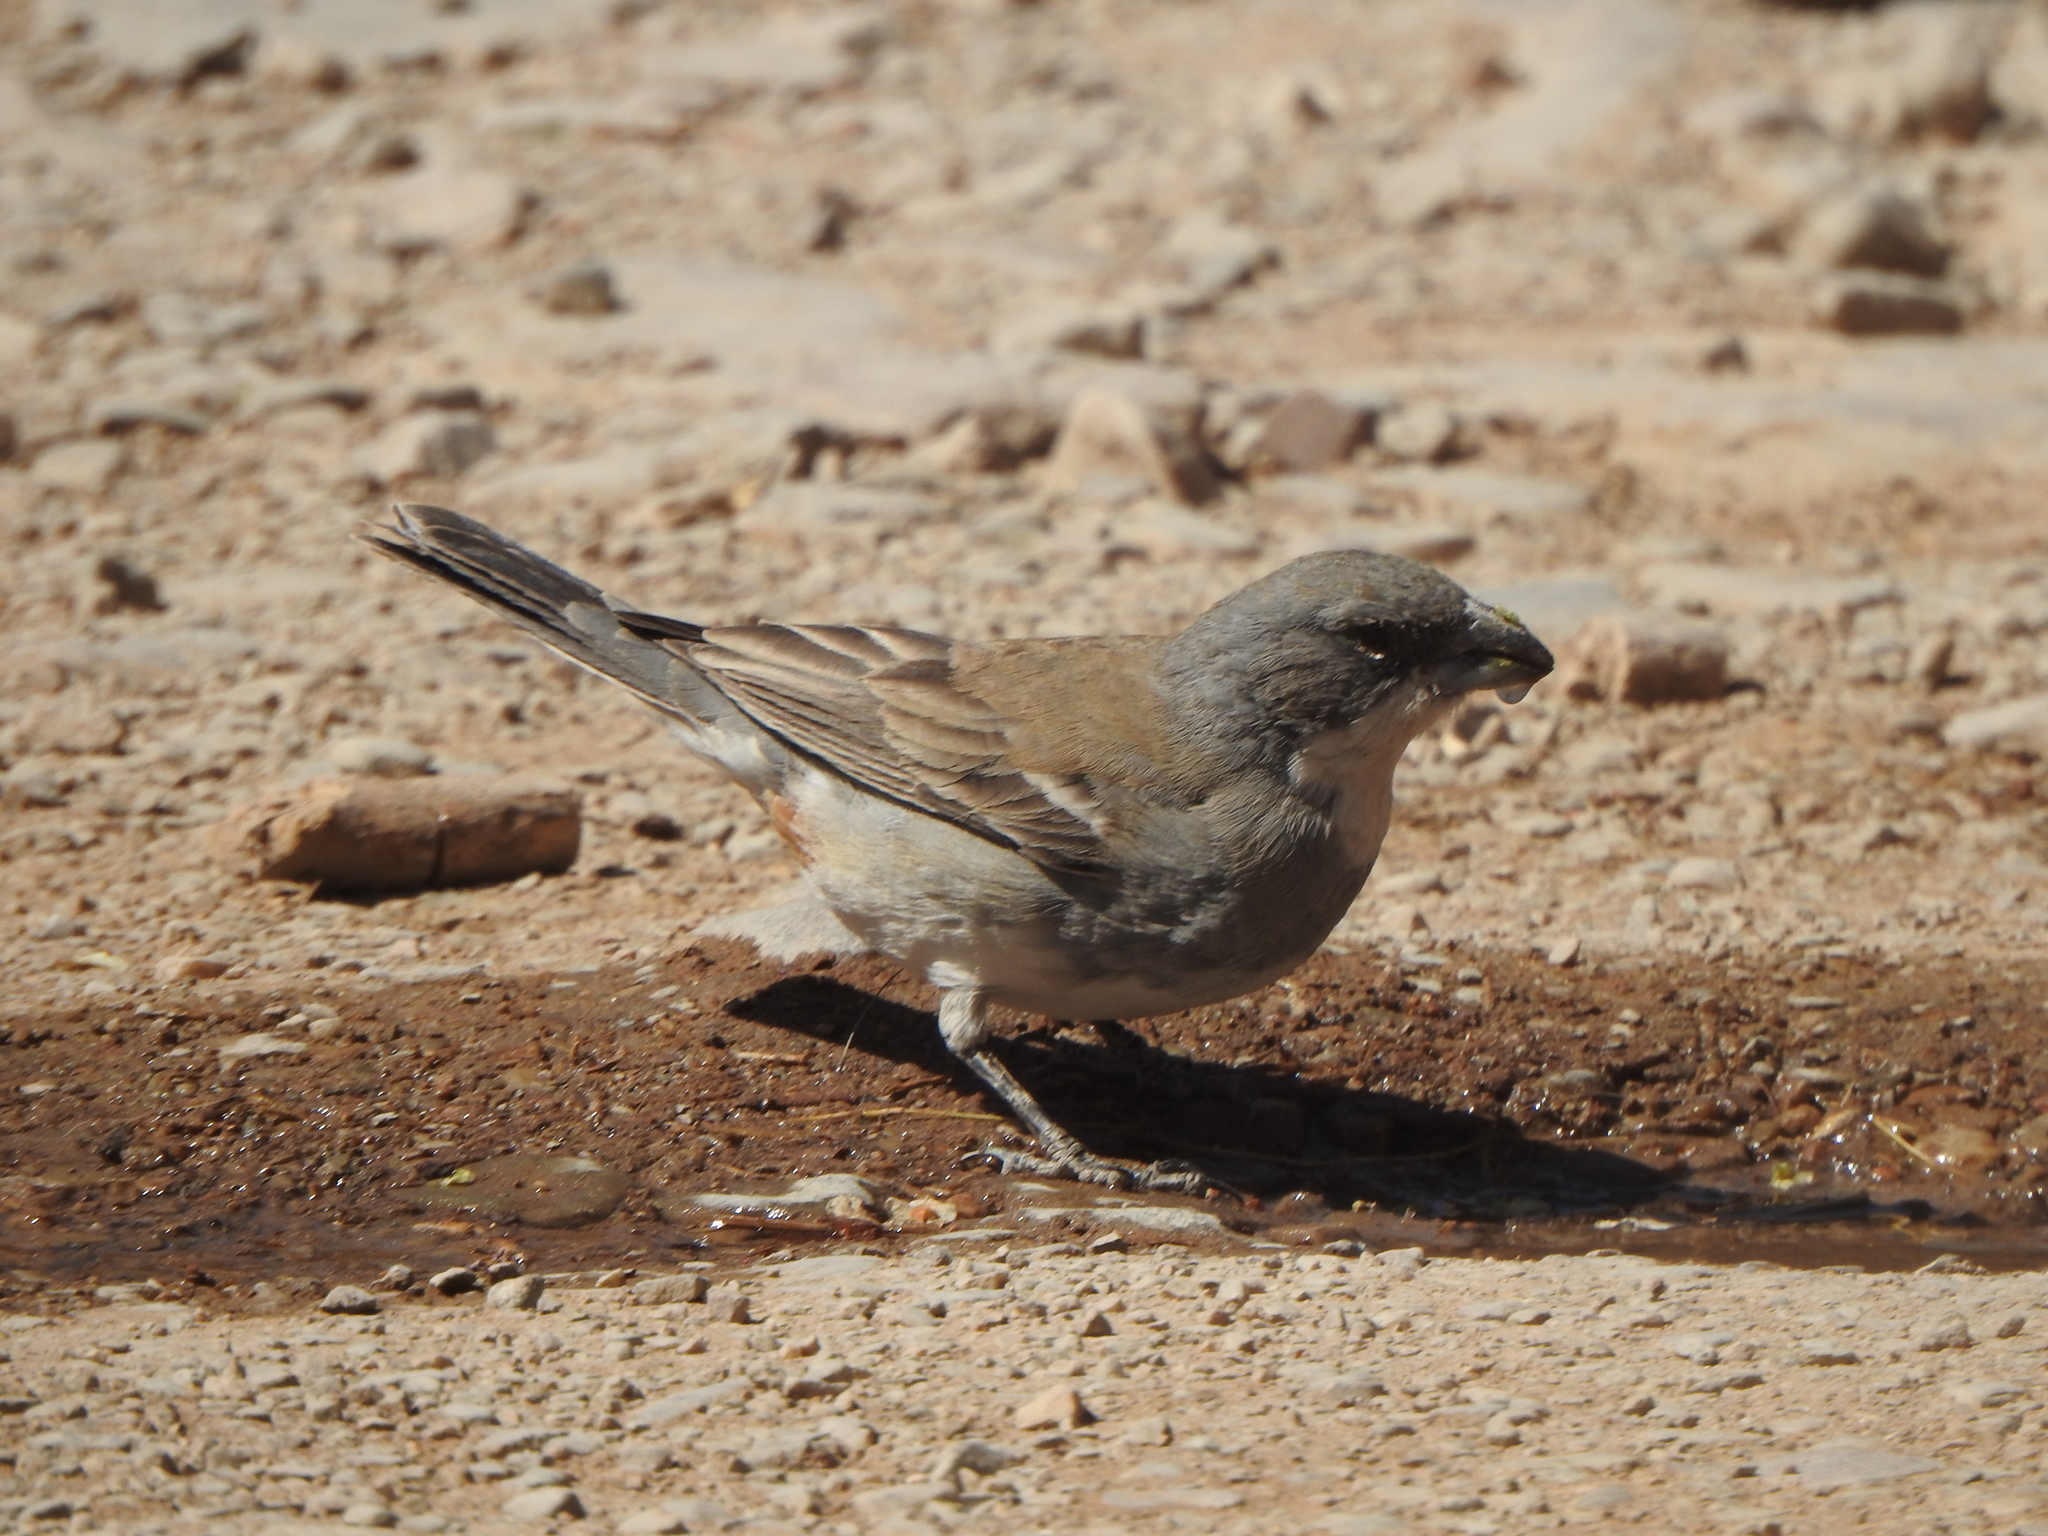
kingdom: Animalia
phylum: Chordata
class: Aves
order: Passeriformes
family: Thraupidae
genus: Diuca
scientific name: Diuca diuca
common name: Common diuca finch
